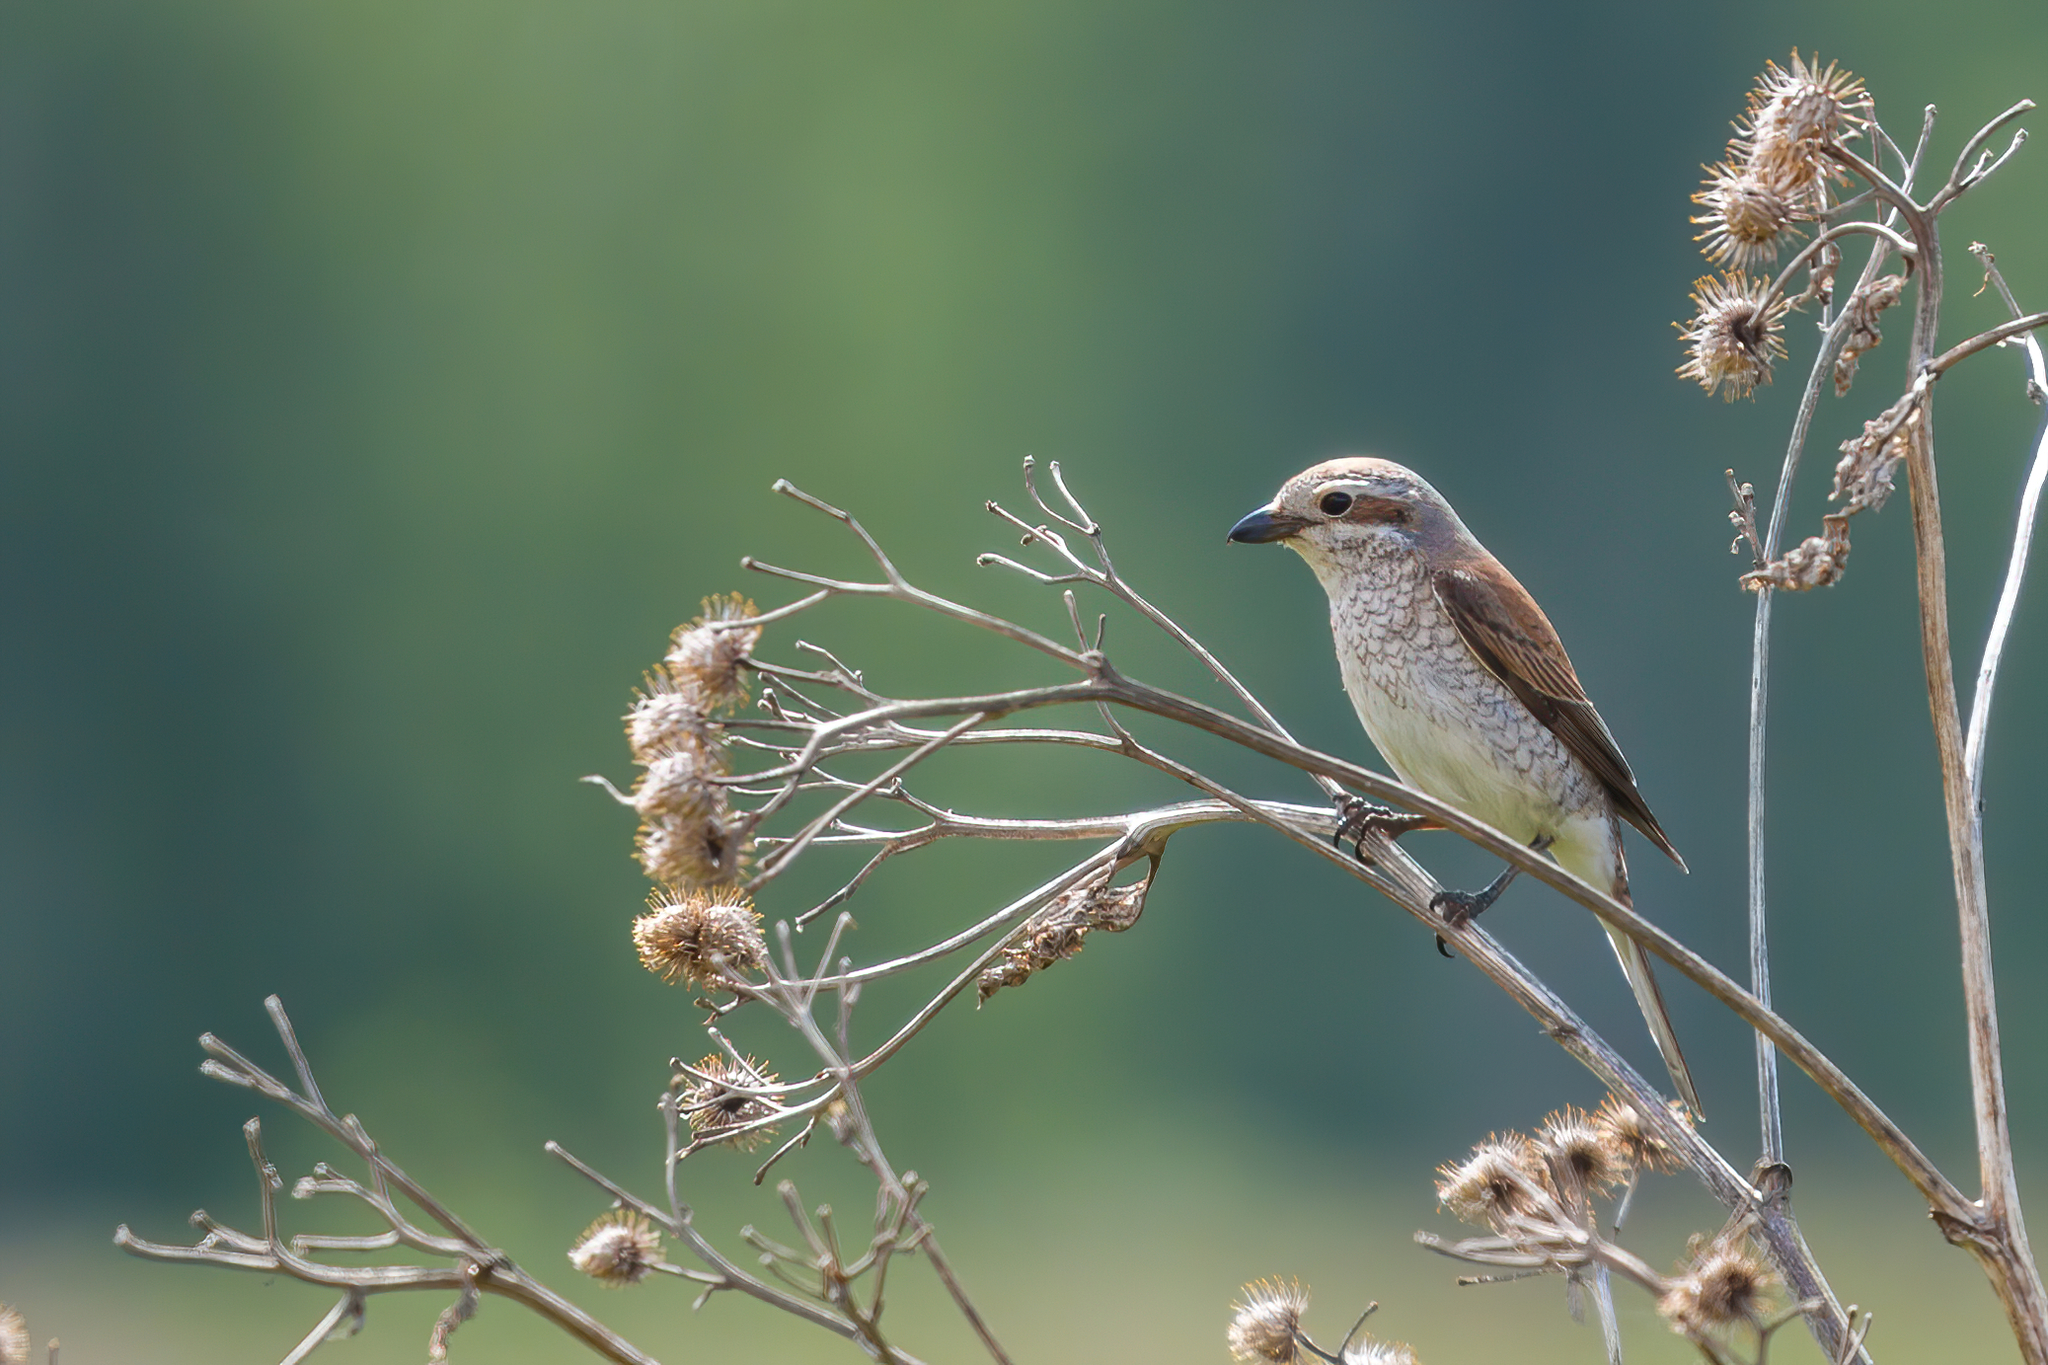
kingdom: Animalia
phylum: Chordata
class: Aves
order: Passeriformes
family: Laniidae
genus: Lanius
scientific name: Lanius collurio
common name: Red-backed shrike
